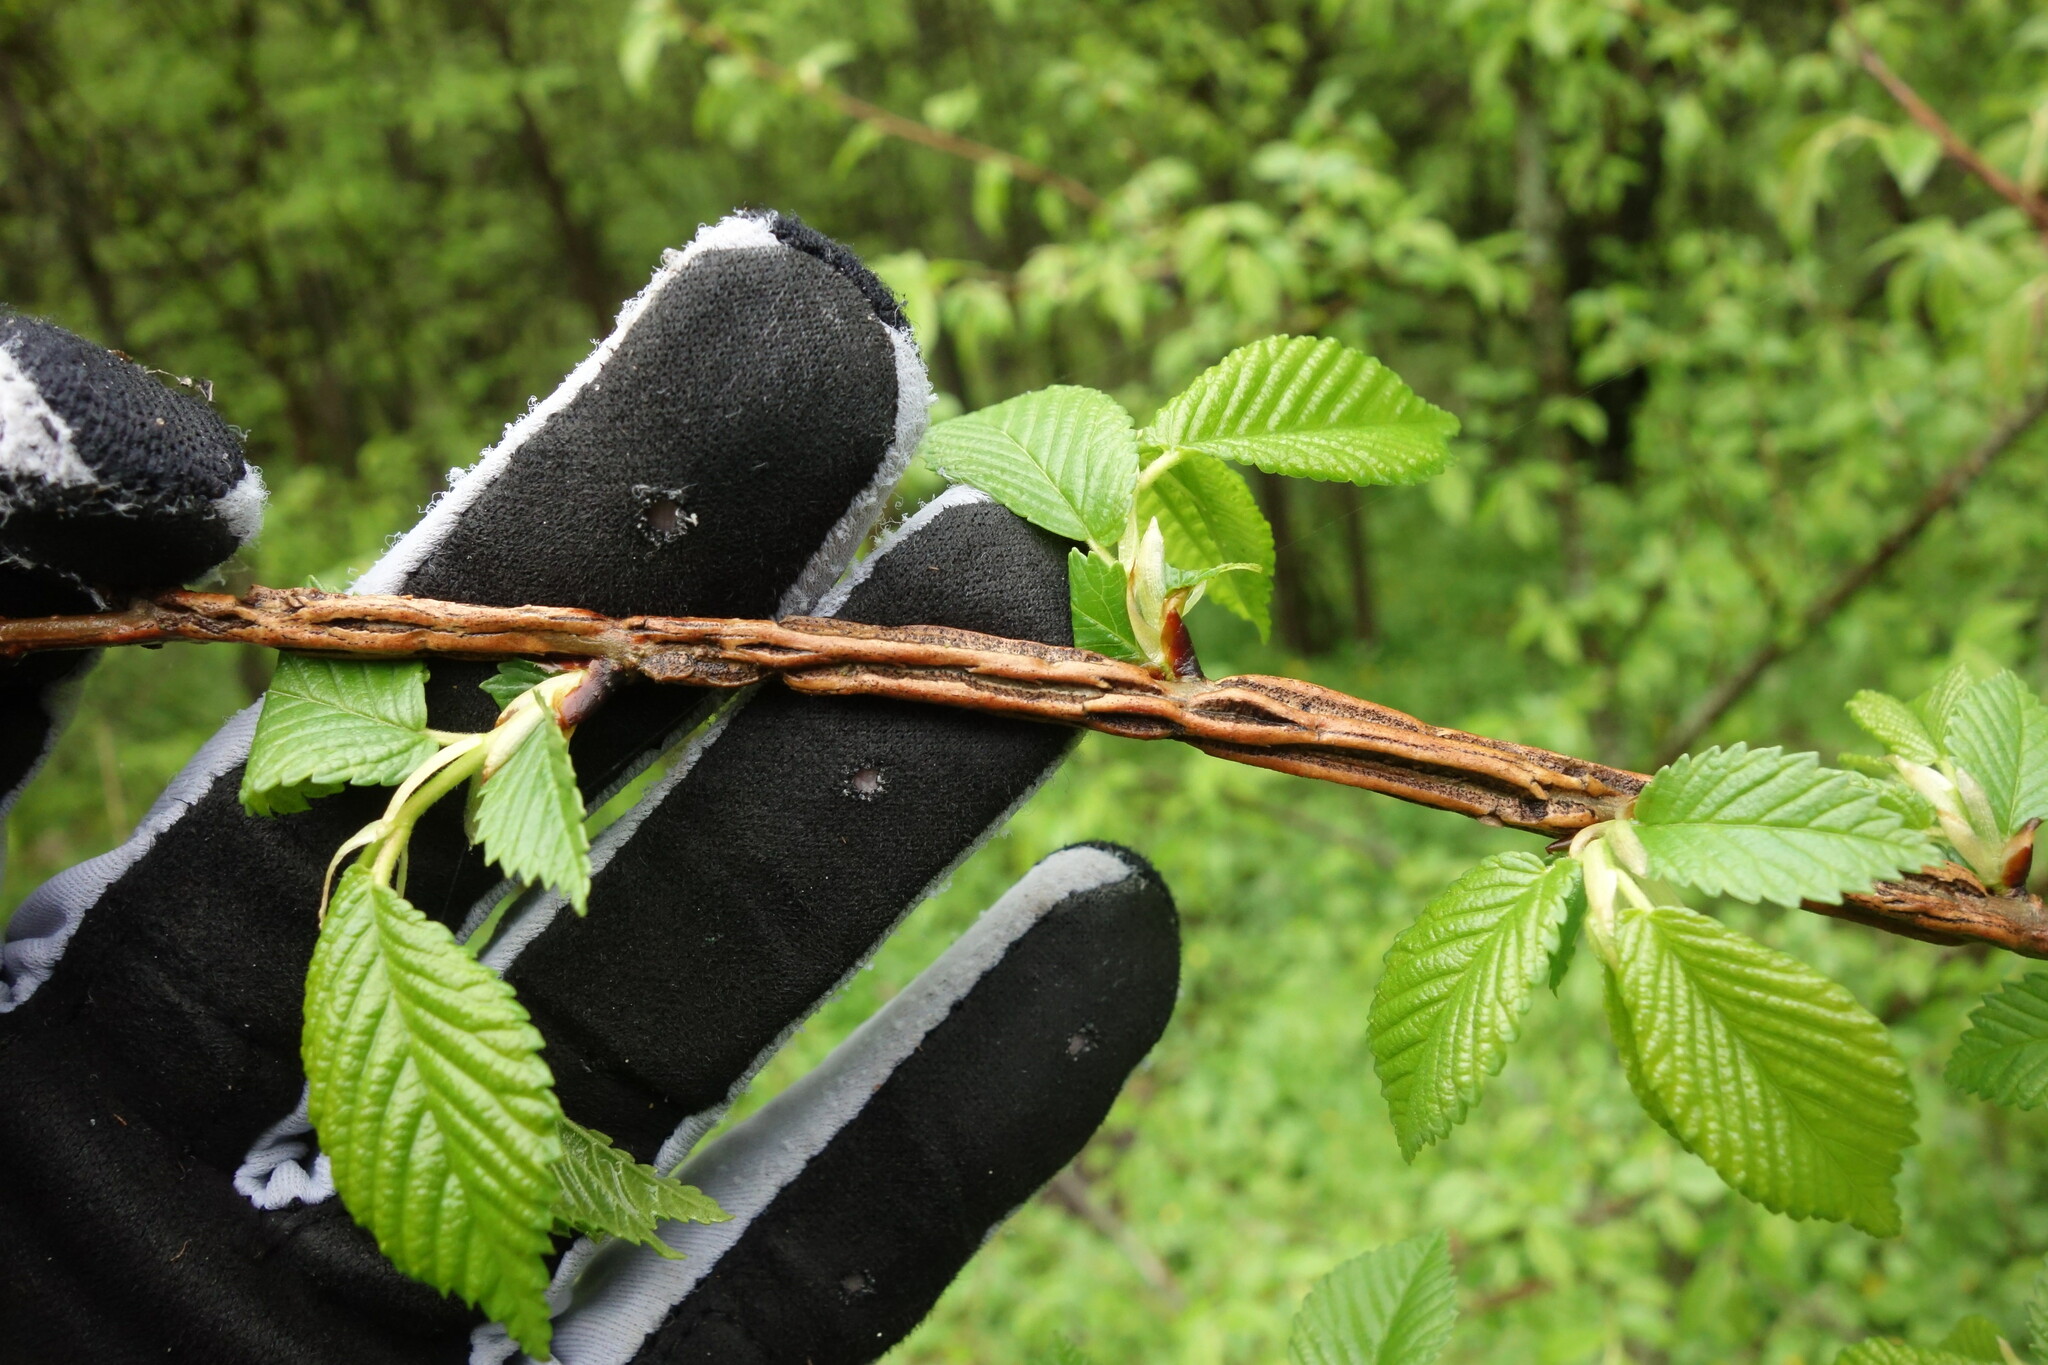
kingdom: Plantae
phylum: Tracheophyta
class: Magnoliopsida
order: Rosales
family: Ulmaceae
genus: Ulmus
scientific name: Ulmus minor
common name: Small-leaved elm
